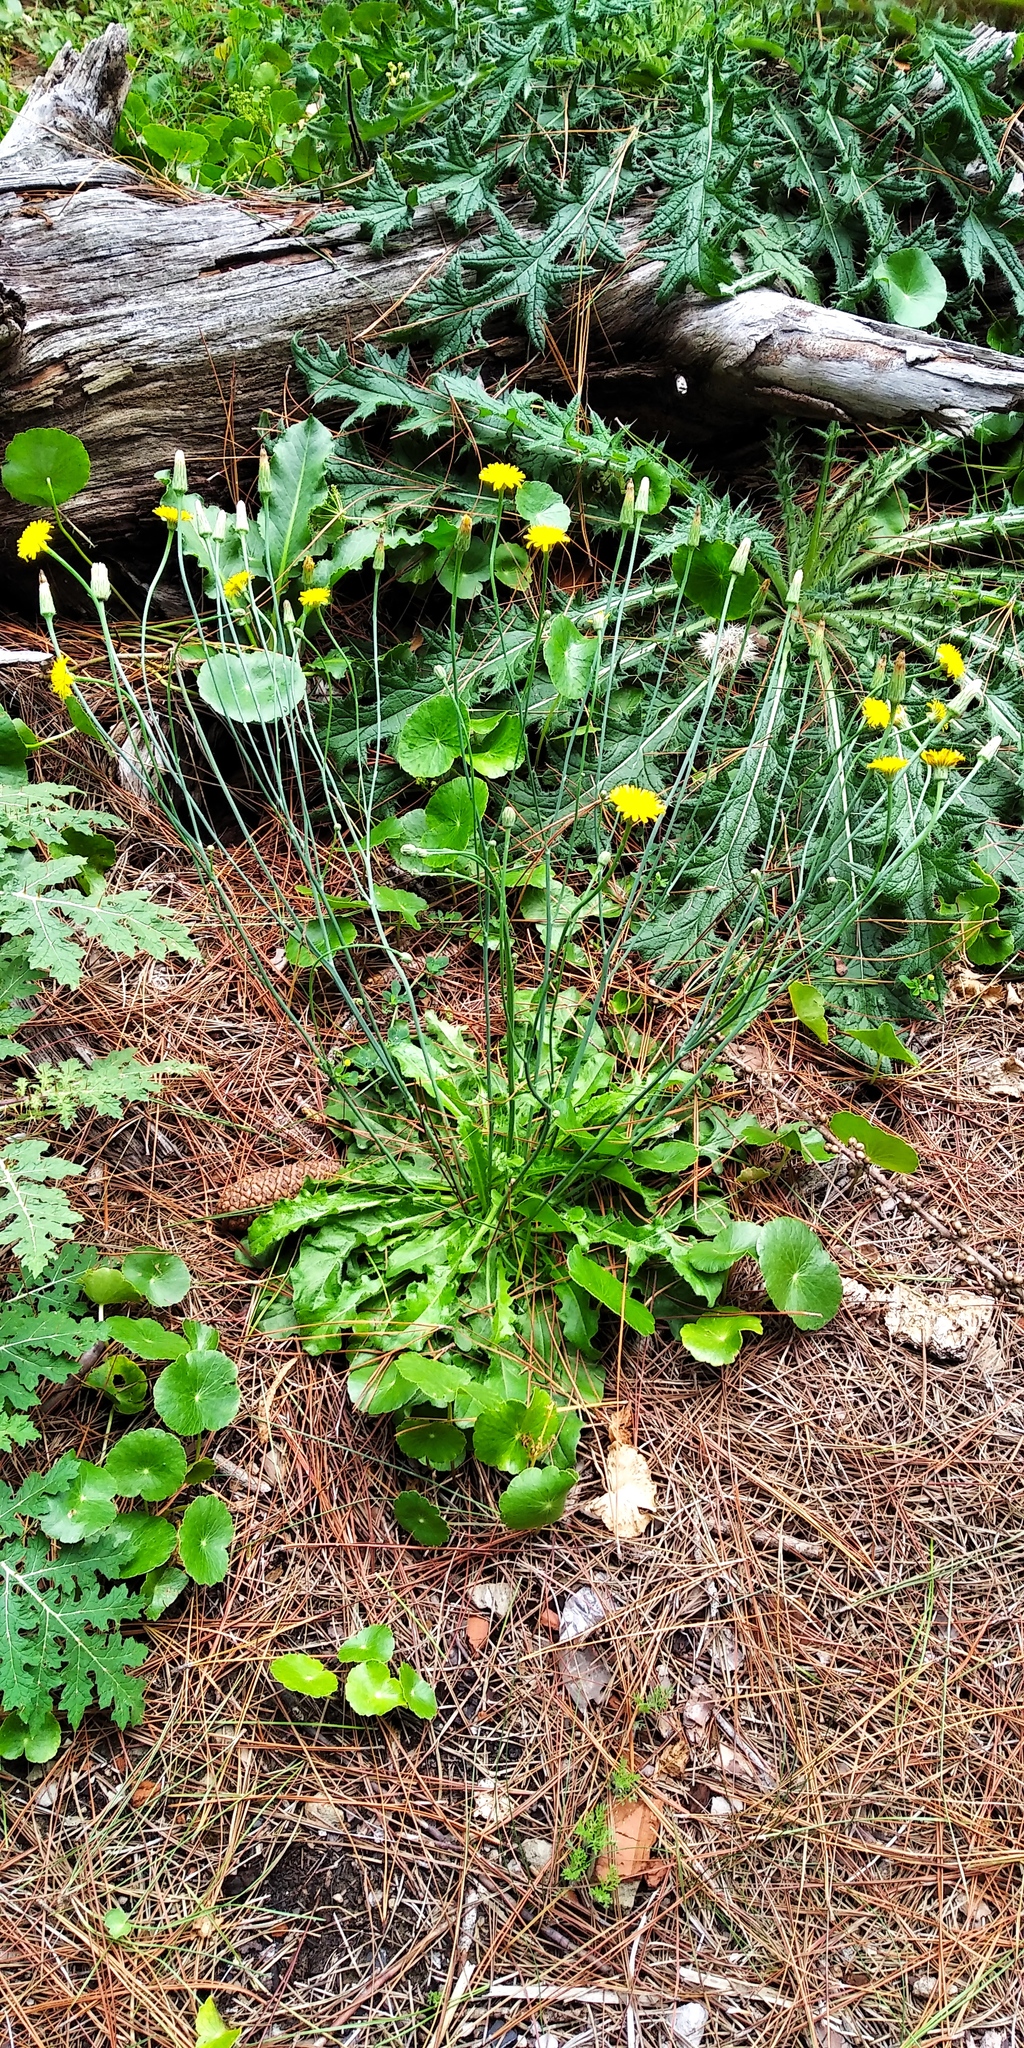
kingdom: Plantae
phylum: Tracheophyta
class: Magnoliopsida
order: Asterales
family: Asteraceae
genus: Hypochaeris
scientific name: Hypochaeris radicata
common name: Flatweed
